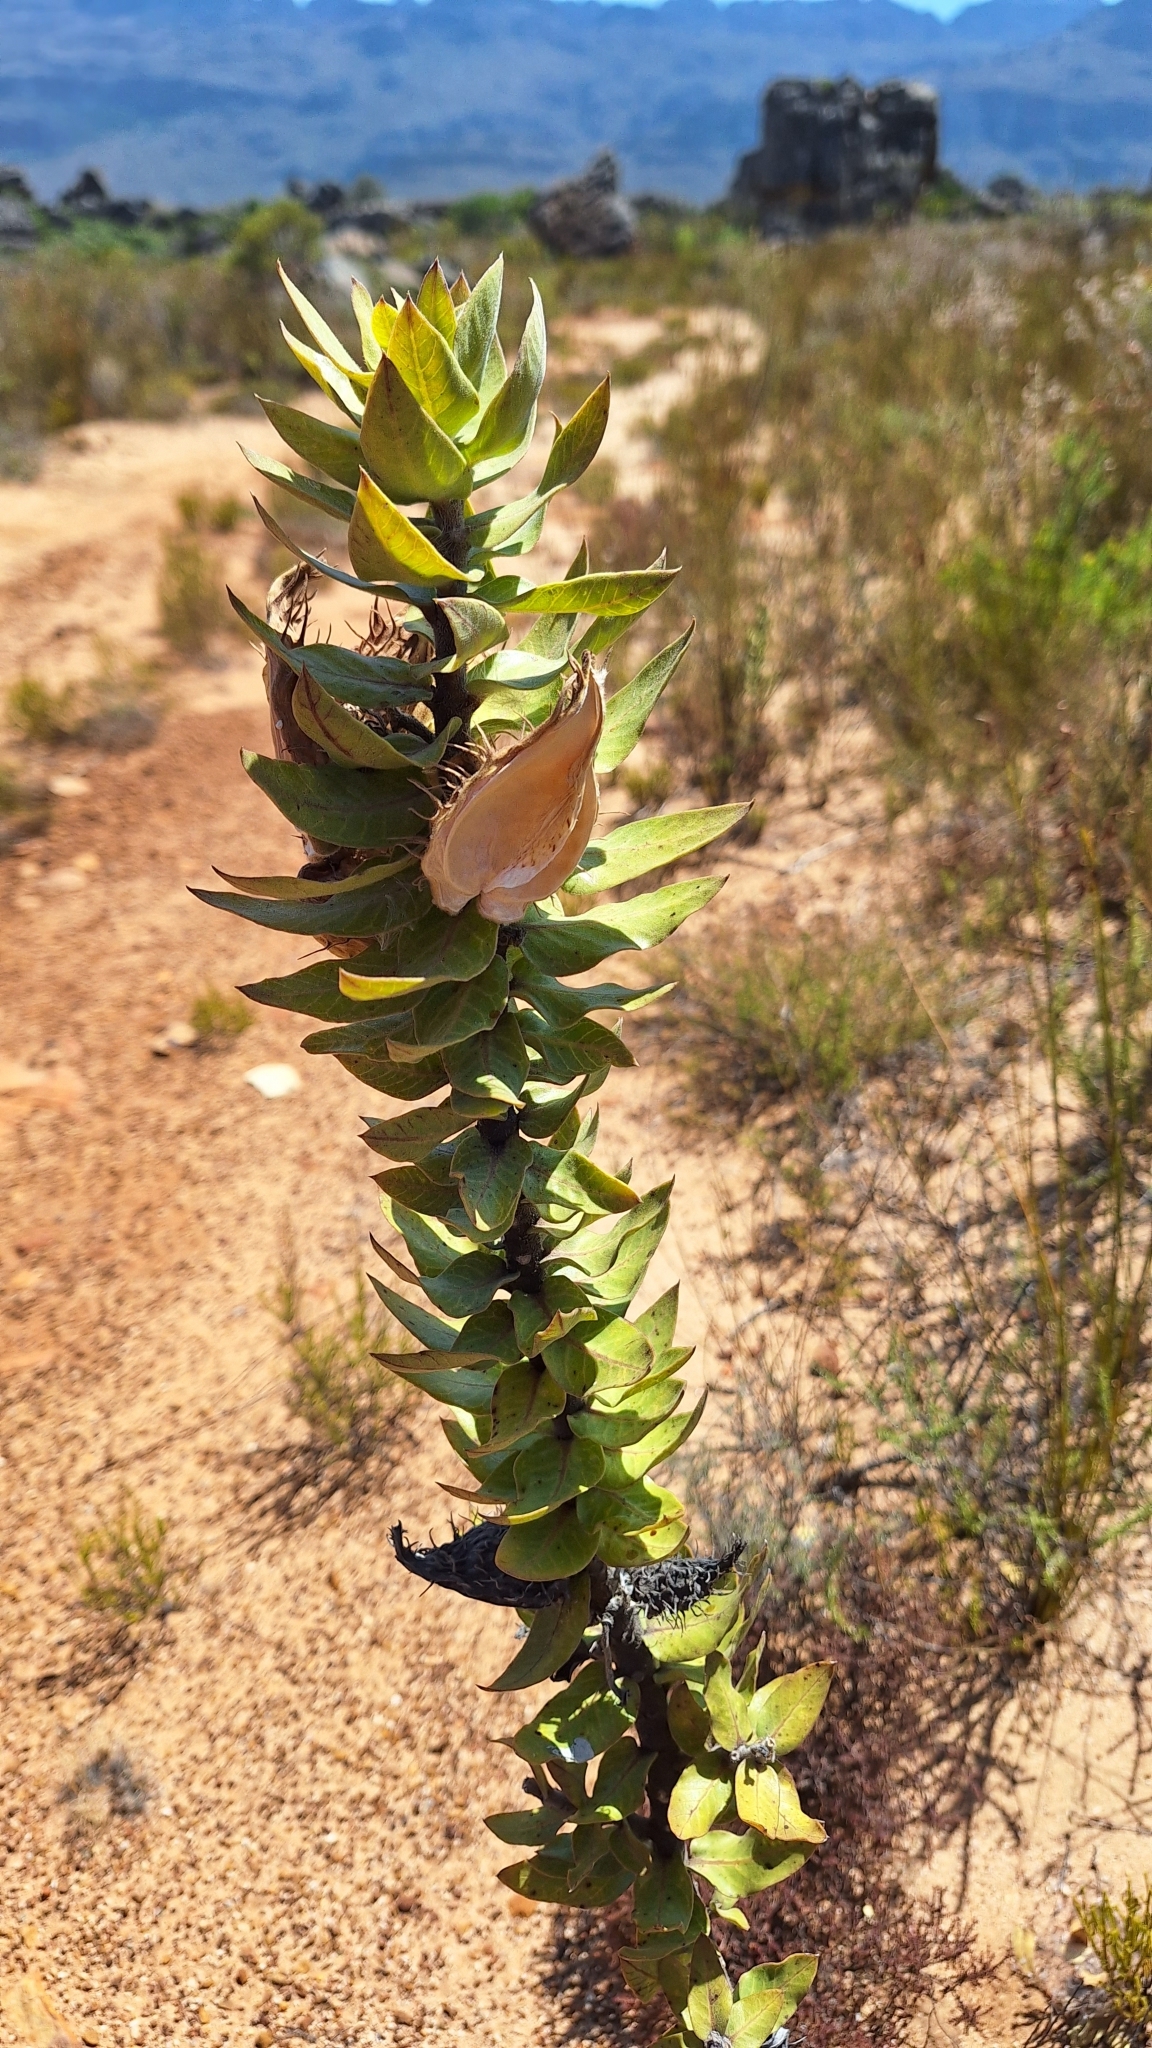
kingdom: Plantae
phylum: Tracheophyta
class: Magnoliopsida
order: Gentianales
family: Apocynaceae
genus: Gomphocarpus
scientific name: Gomphocarpus cancellatus
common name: Wild cotton
